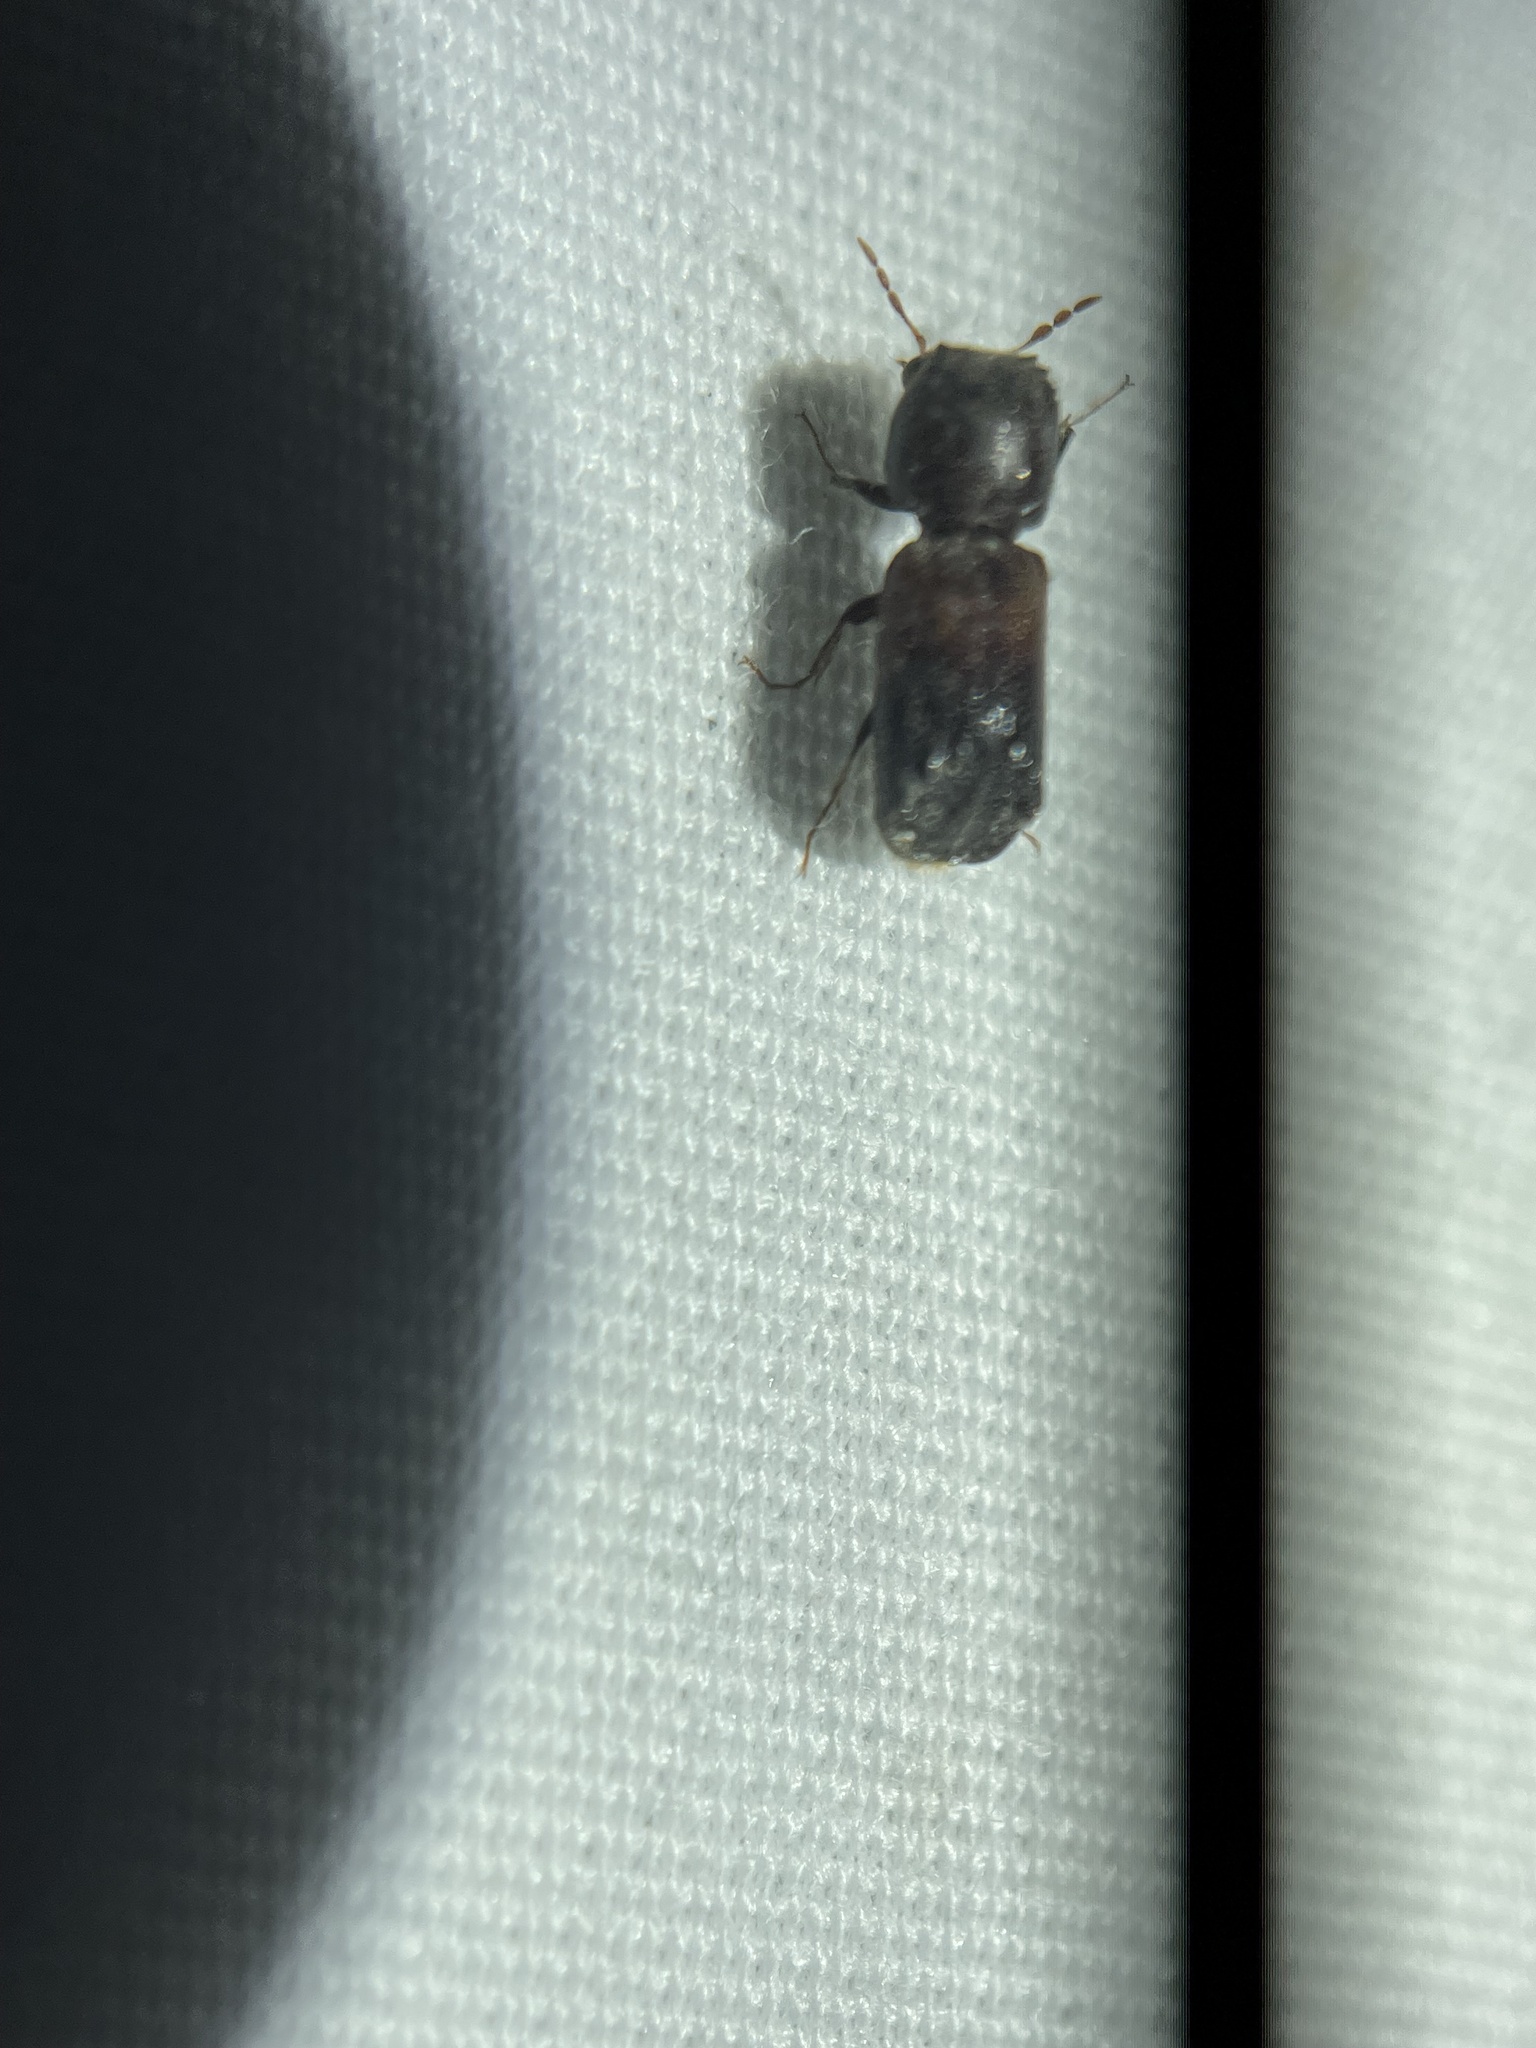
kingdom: Animalia
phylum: Arthropoda
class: Insecta
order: Coleoptera
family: Bostrichidae
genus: Xylobiops
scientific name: Xylobiops basilaris
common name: Red-shouldered bostrichid
